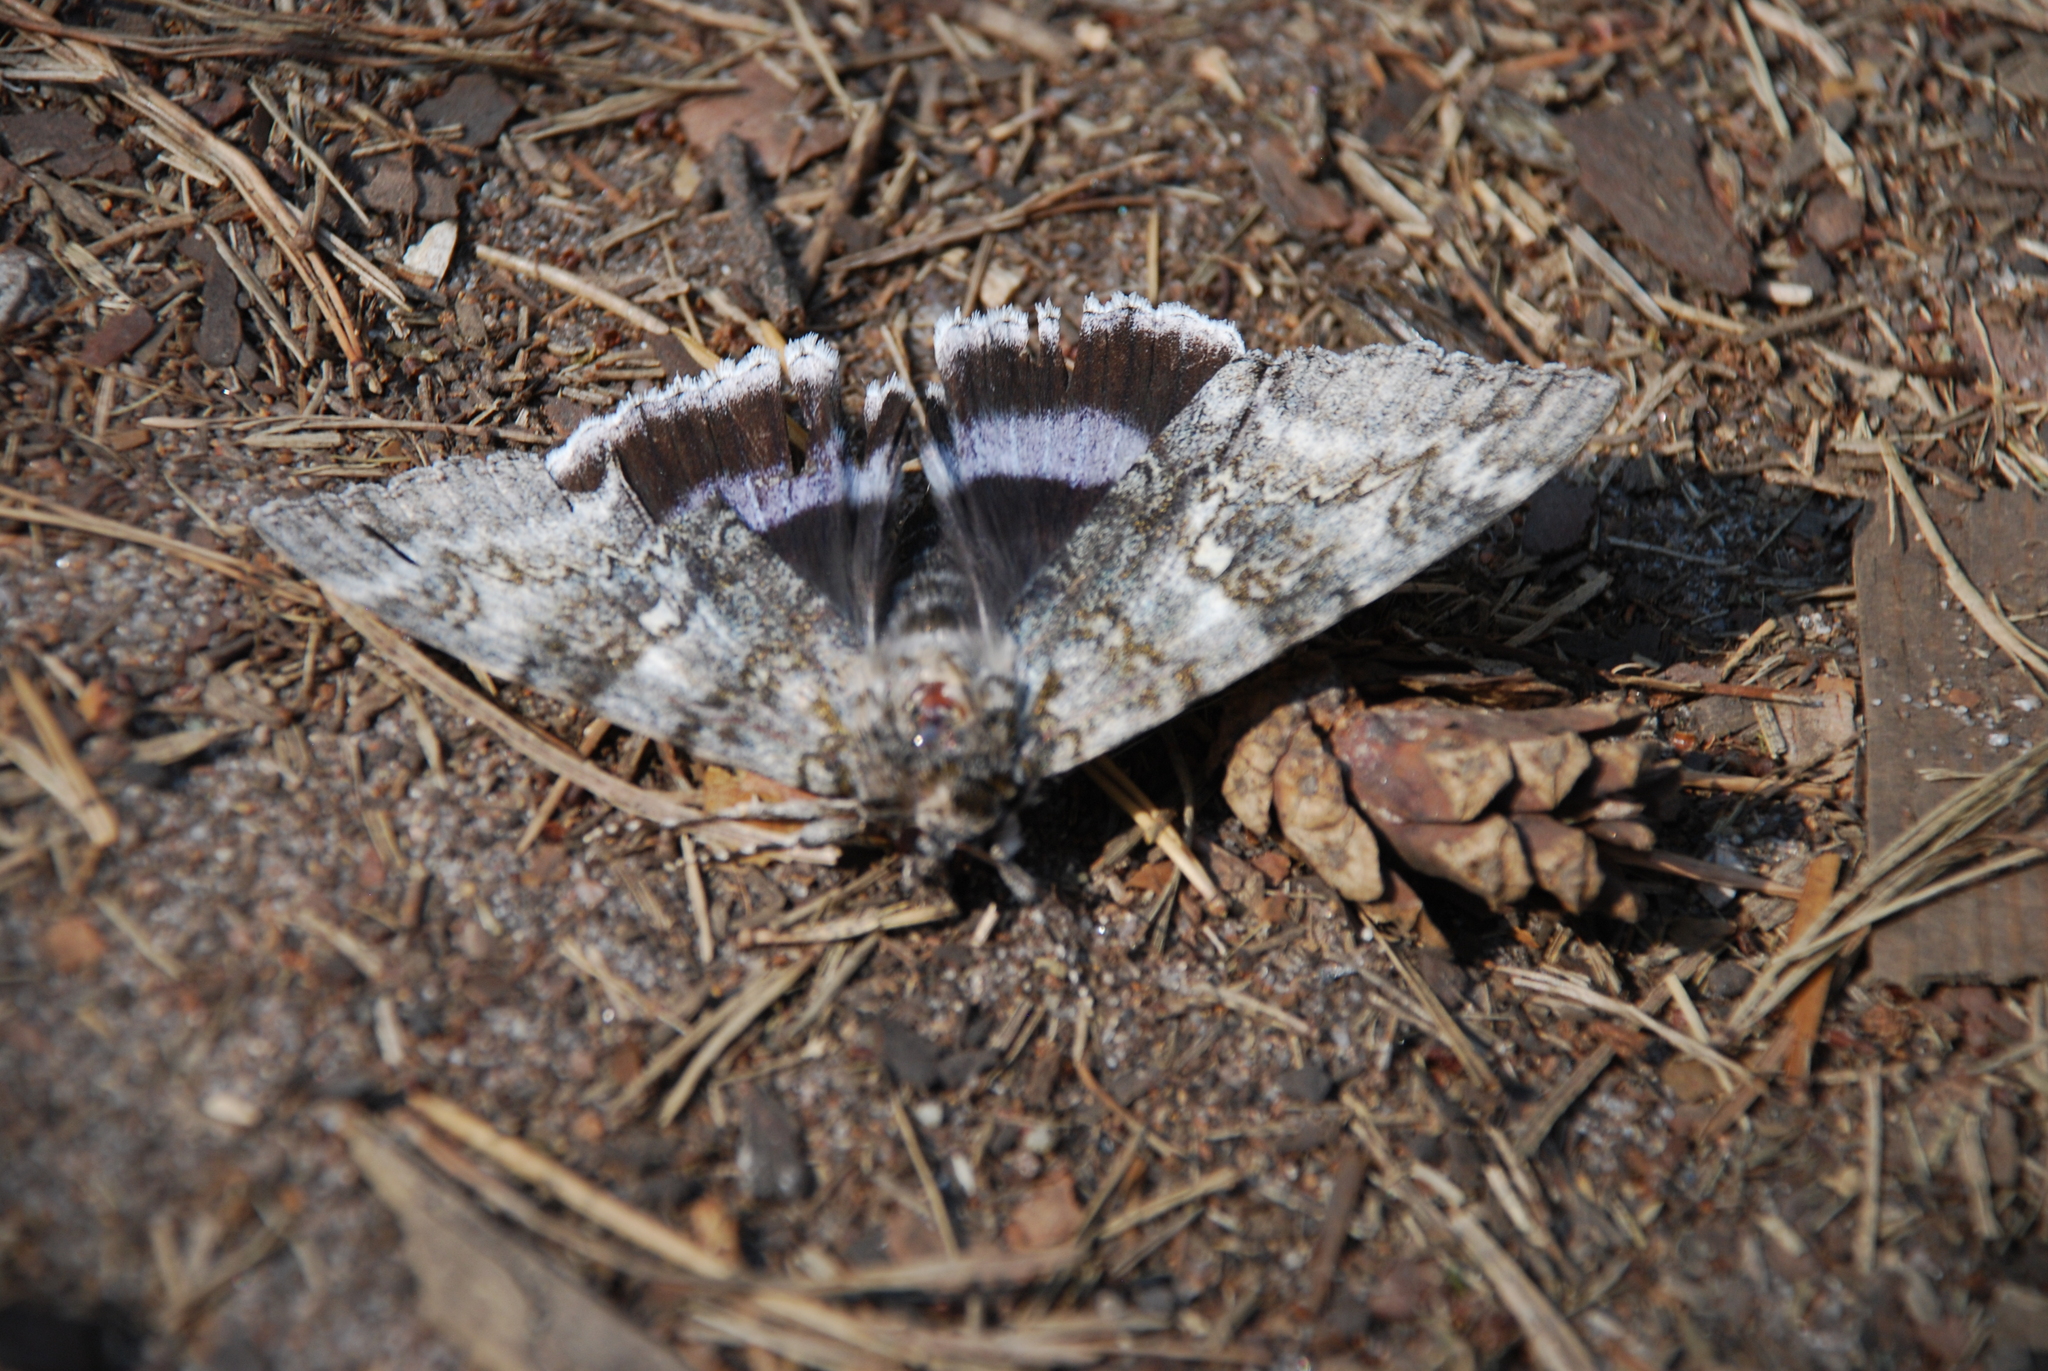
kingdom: Animalia
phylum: Arthropoda
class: Insecta
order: Lepidoptera
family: Erebidae
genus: Catocala
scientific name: Catocala fraxini
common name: Clifden nonpareil
